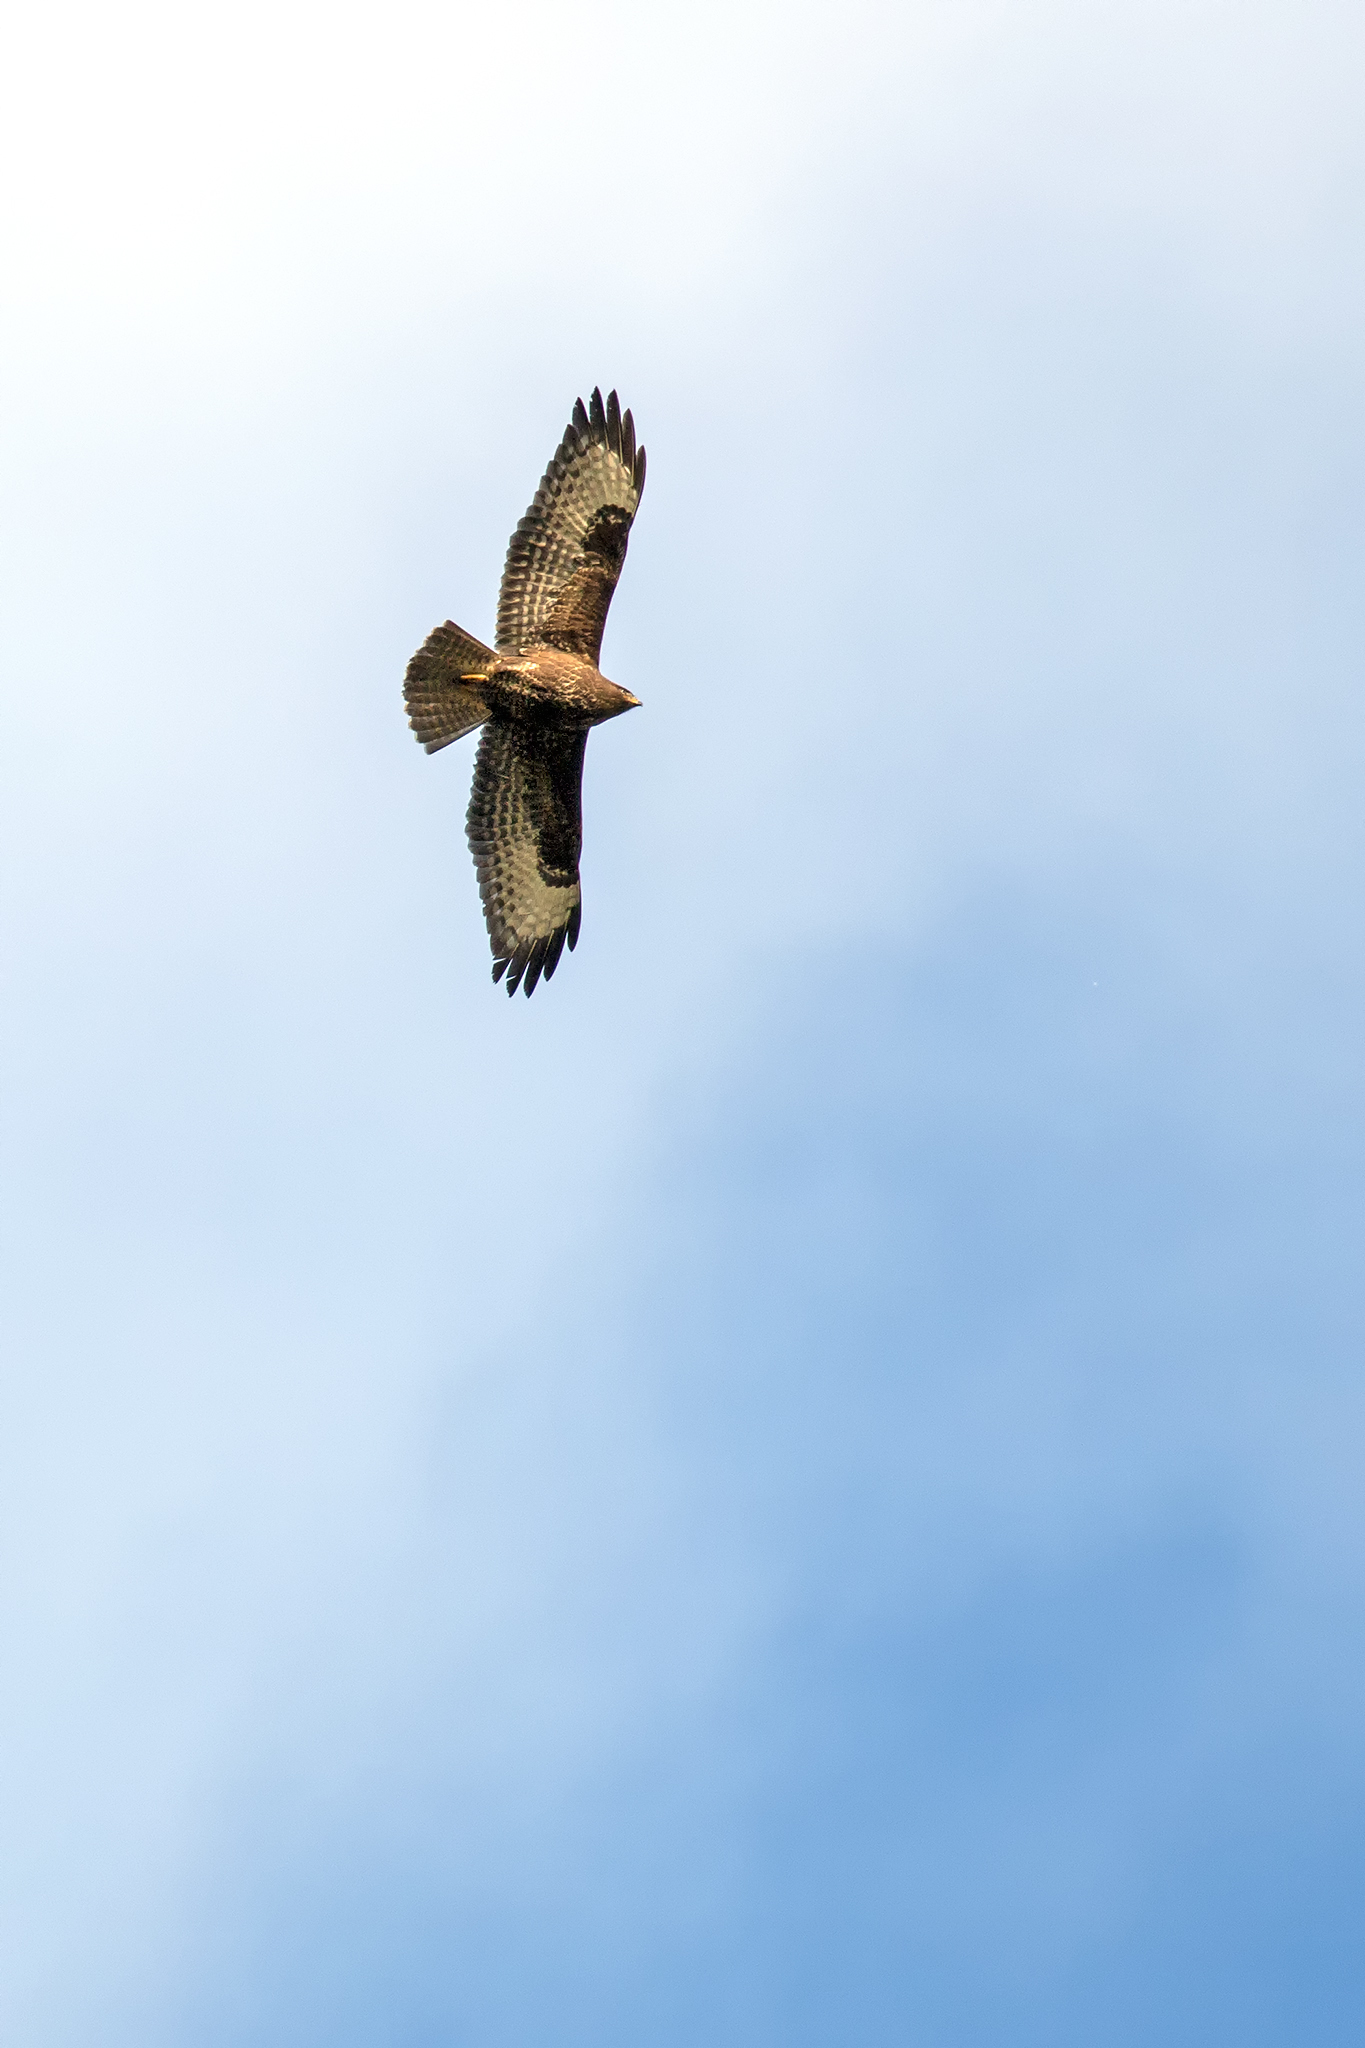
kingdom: Animalia
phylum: Chordata
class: Aves
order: Accipitriformes
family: Accipitridae
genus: Buteo
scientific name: Buteo buteo
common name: Common buzzard
